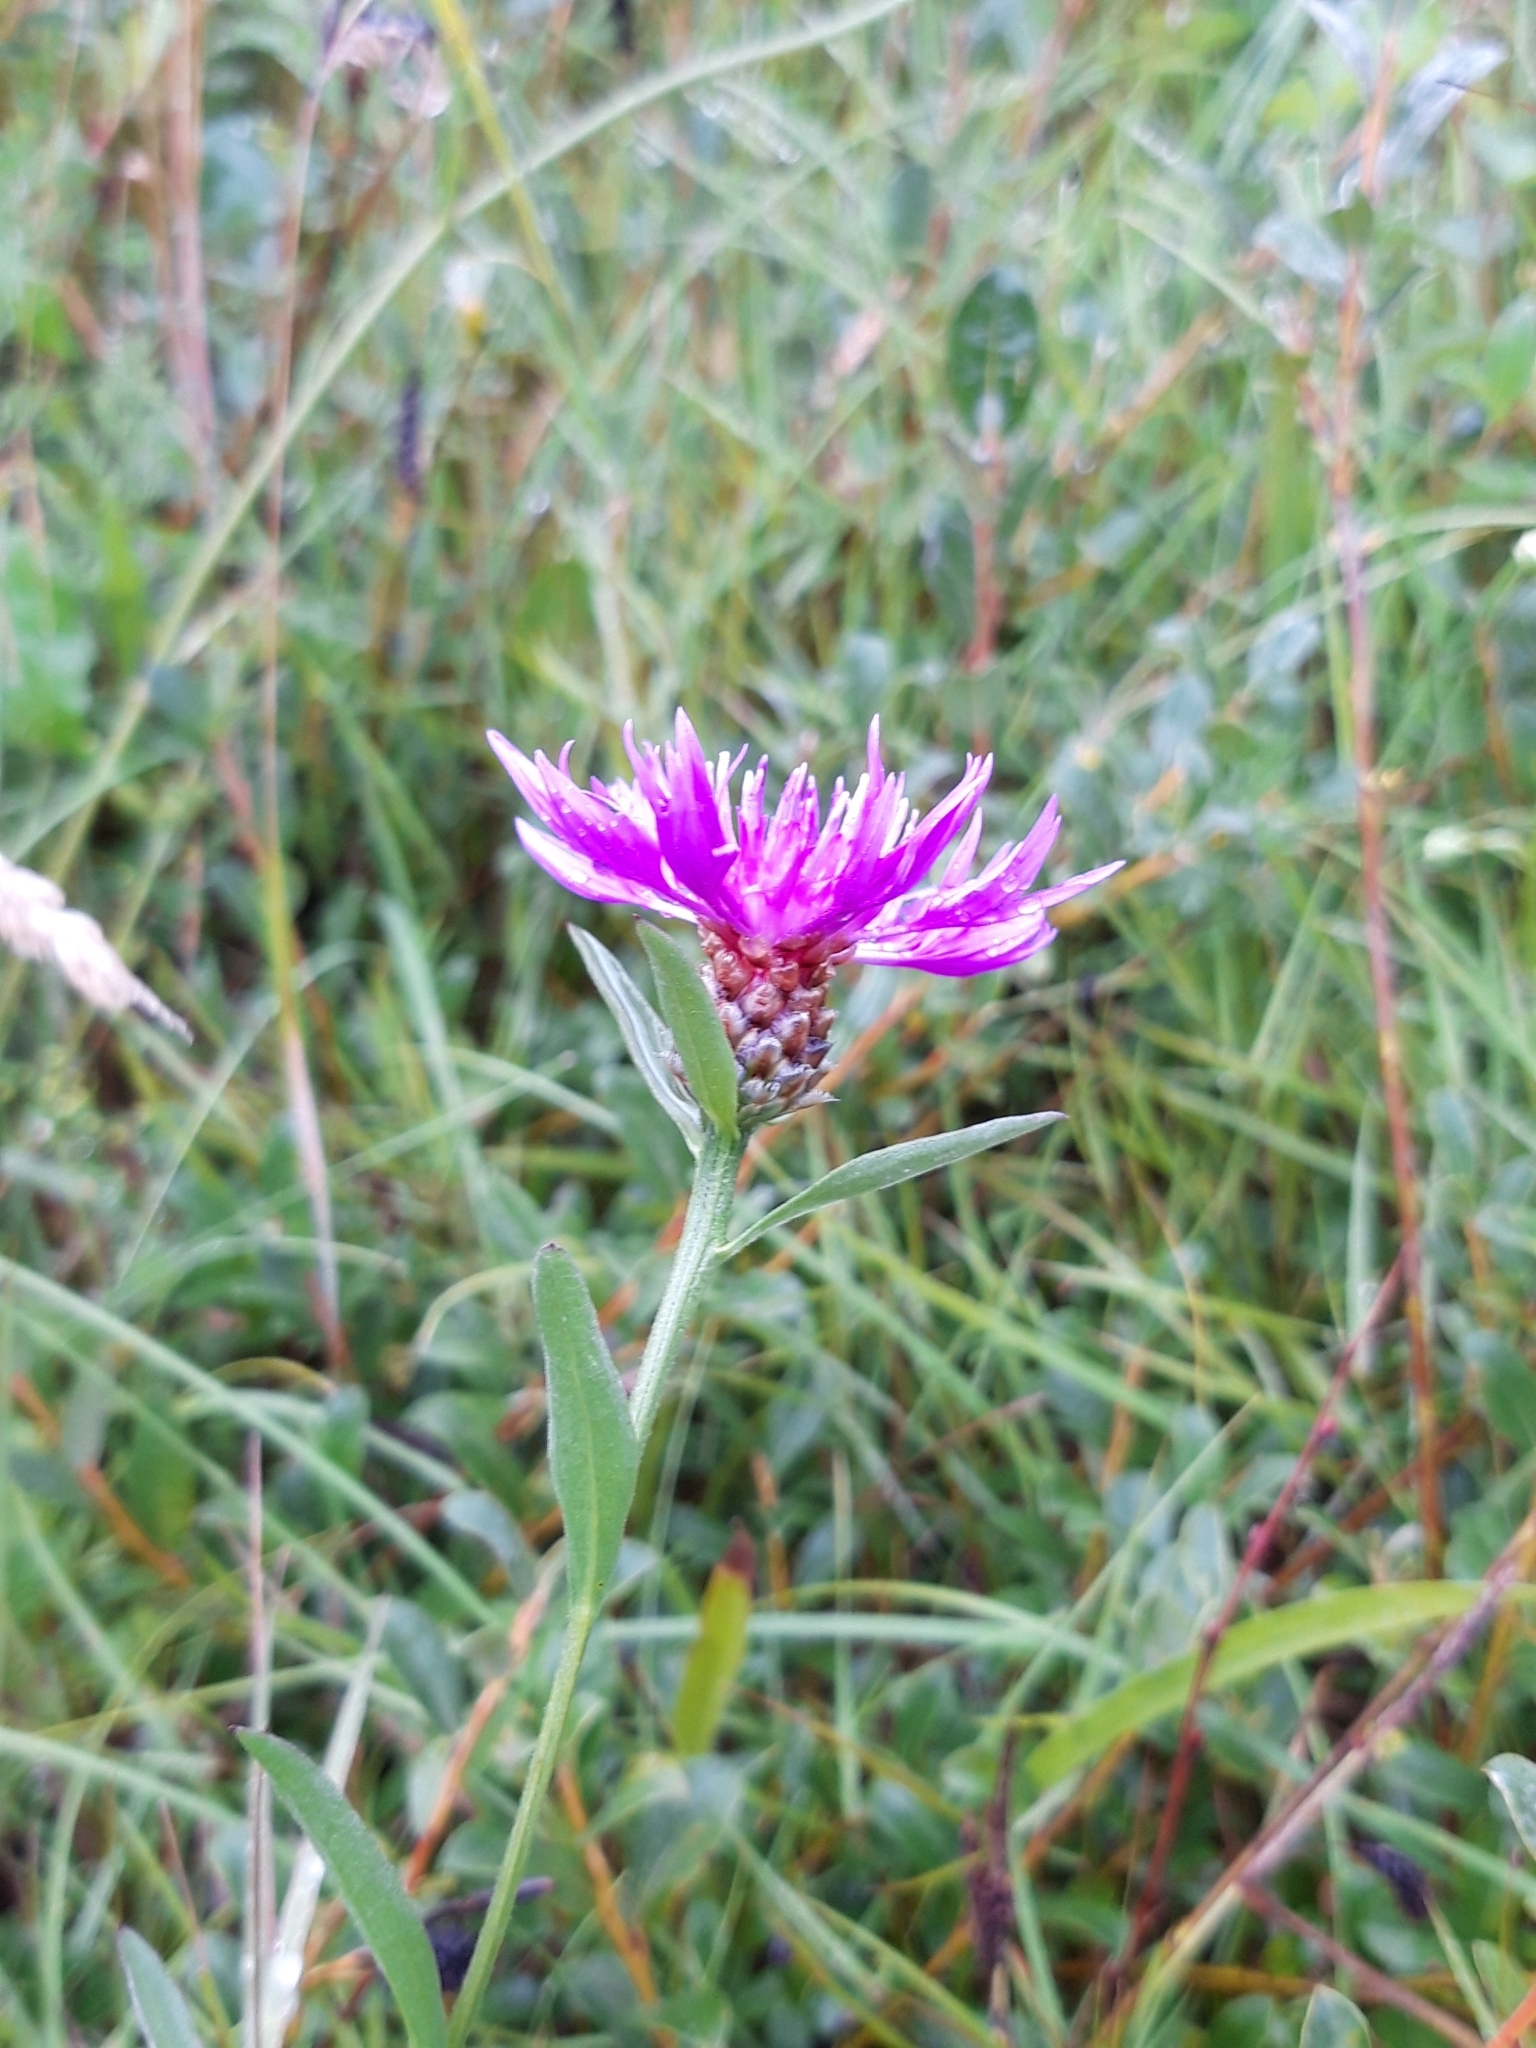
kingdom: Plantae
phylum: Tracheophyta
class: Magnoliopsida
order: Asterales
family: Asteraceae
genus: Centaurea
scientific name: Centaurea jacea
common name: Brown knapweed
